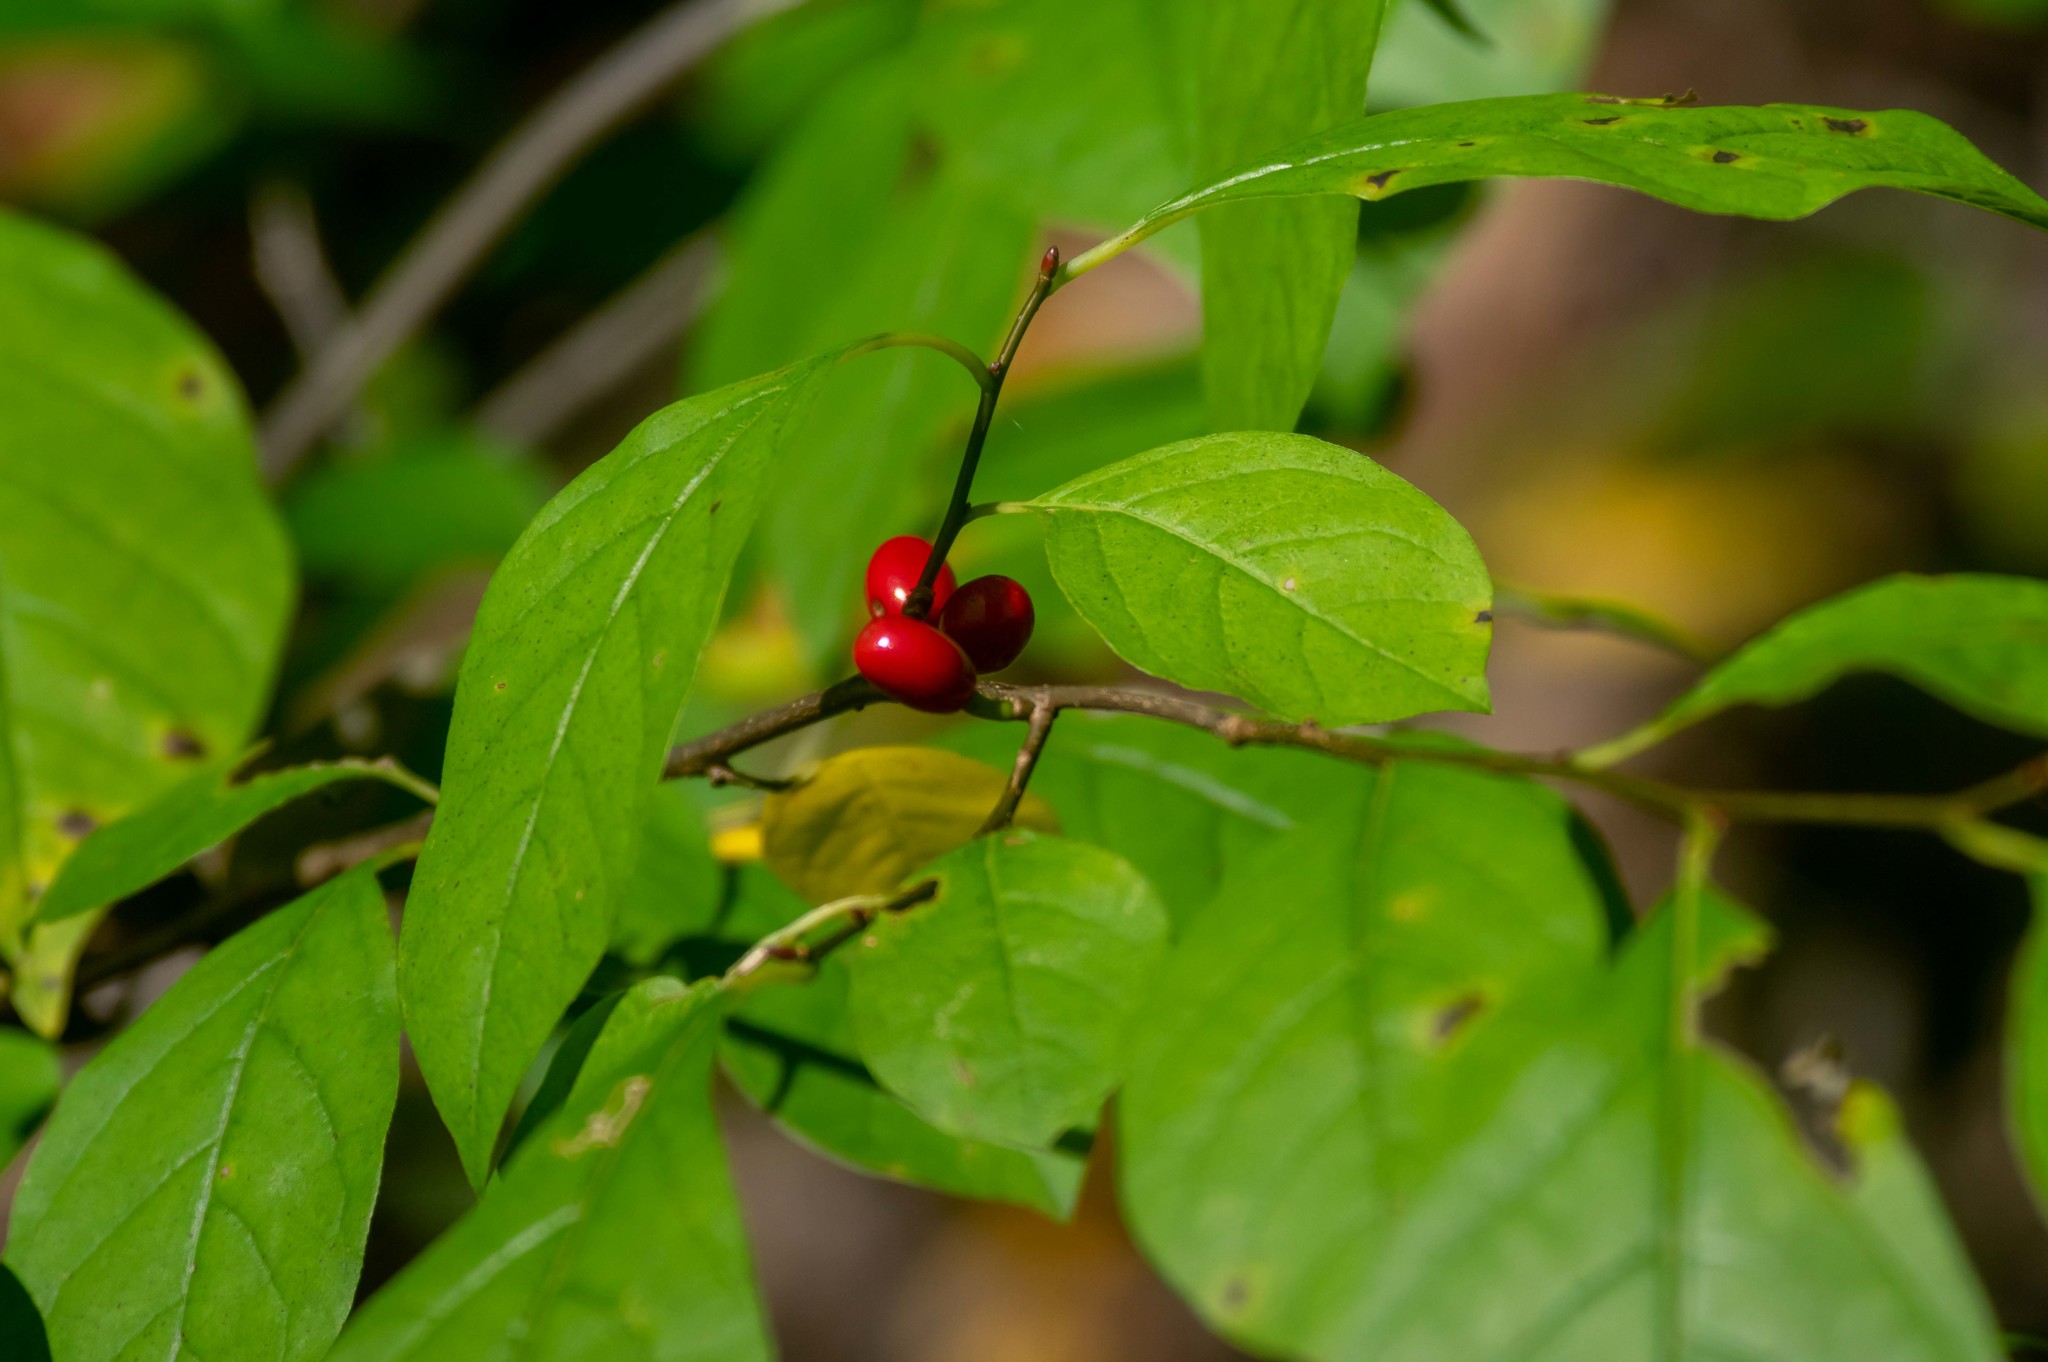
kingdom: Plantae
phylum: Tracheophyta
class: Magnoliopsida
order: Laurales
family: Lauraceae
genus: Lindera
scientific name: Lindera benzoin
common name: Spicebush
